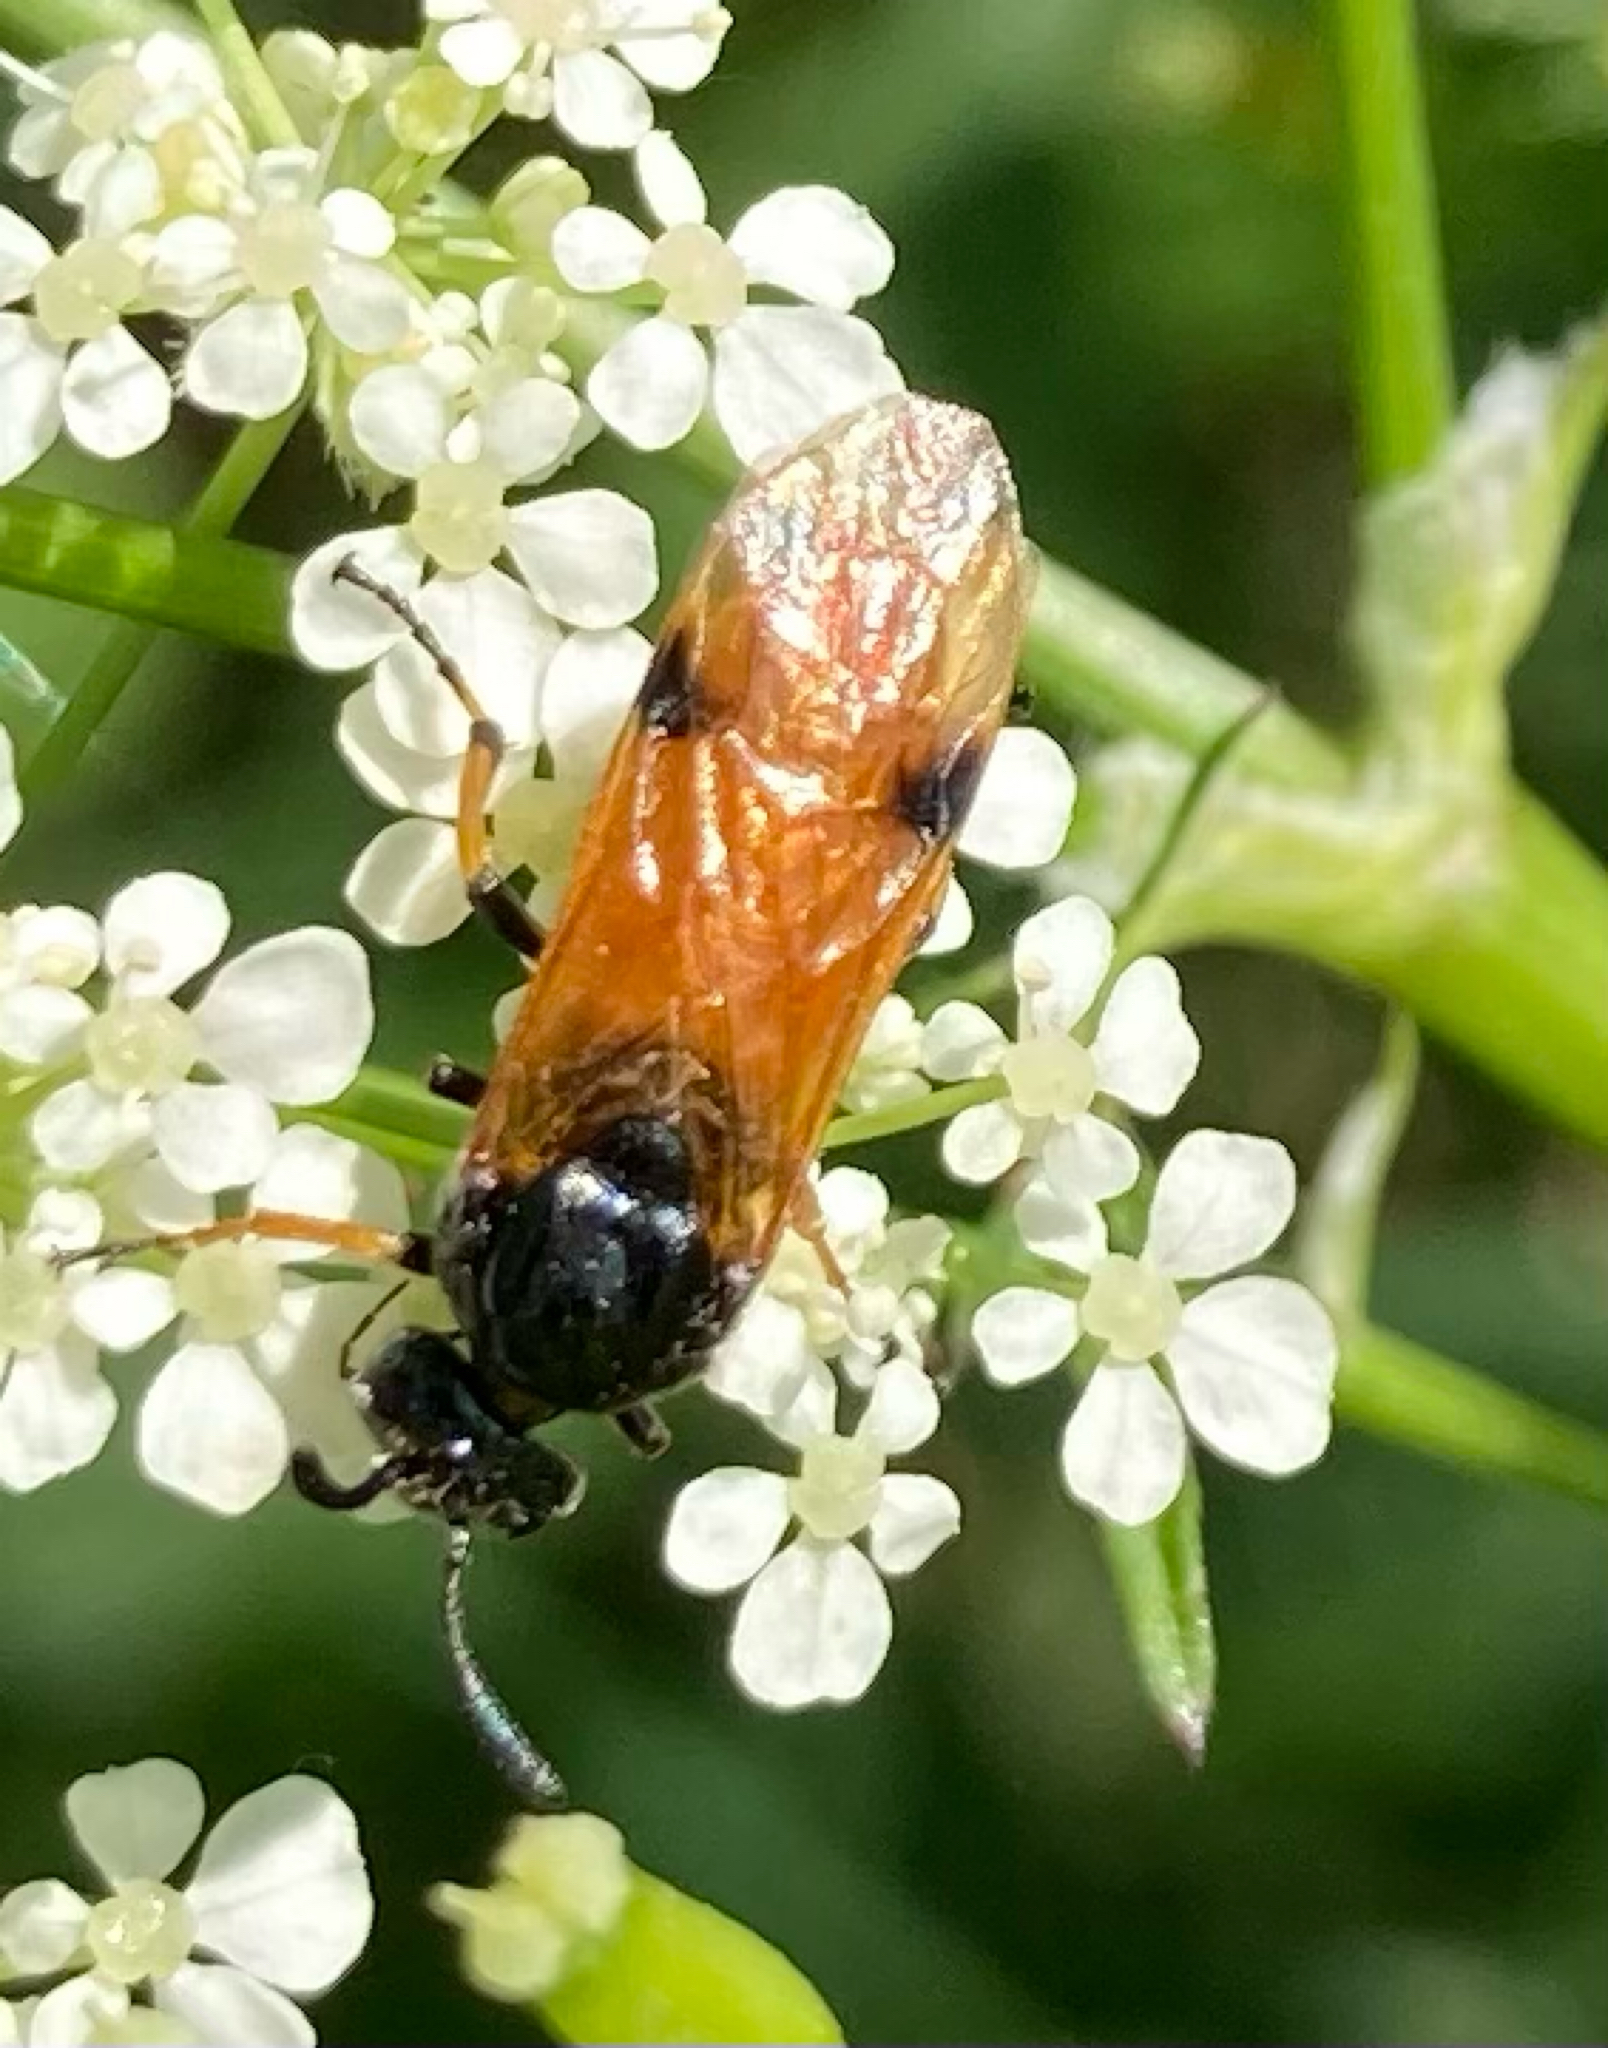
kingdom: Animalia
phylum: Arthropoda
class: Insecta
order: Hymenoptera
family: Argidae
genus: Arge
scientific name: Arge melanochra
